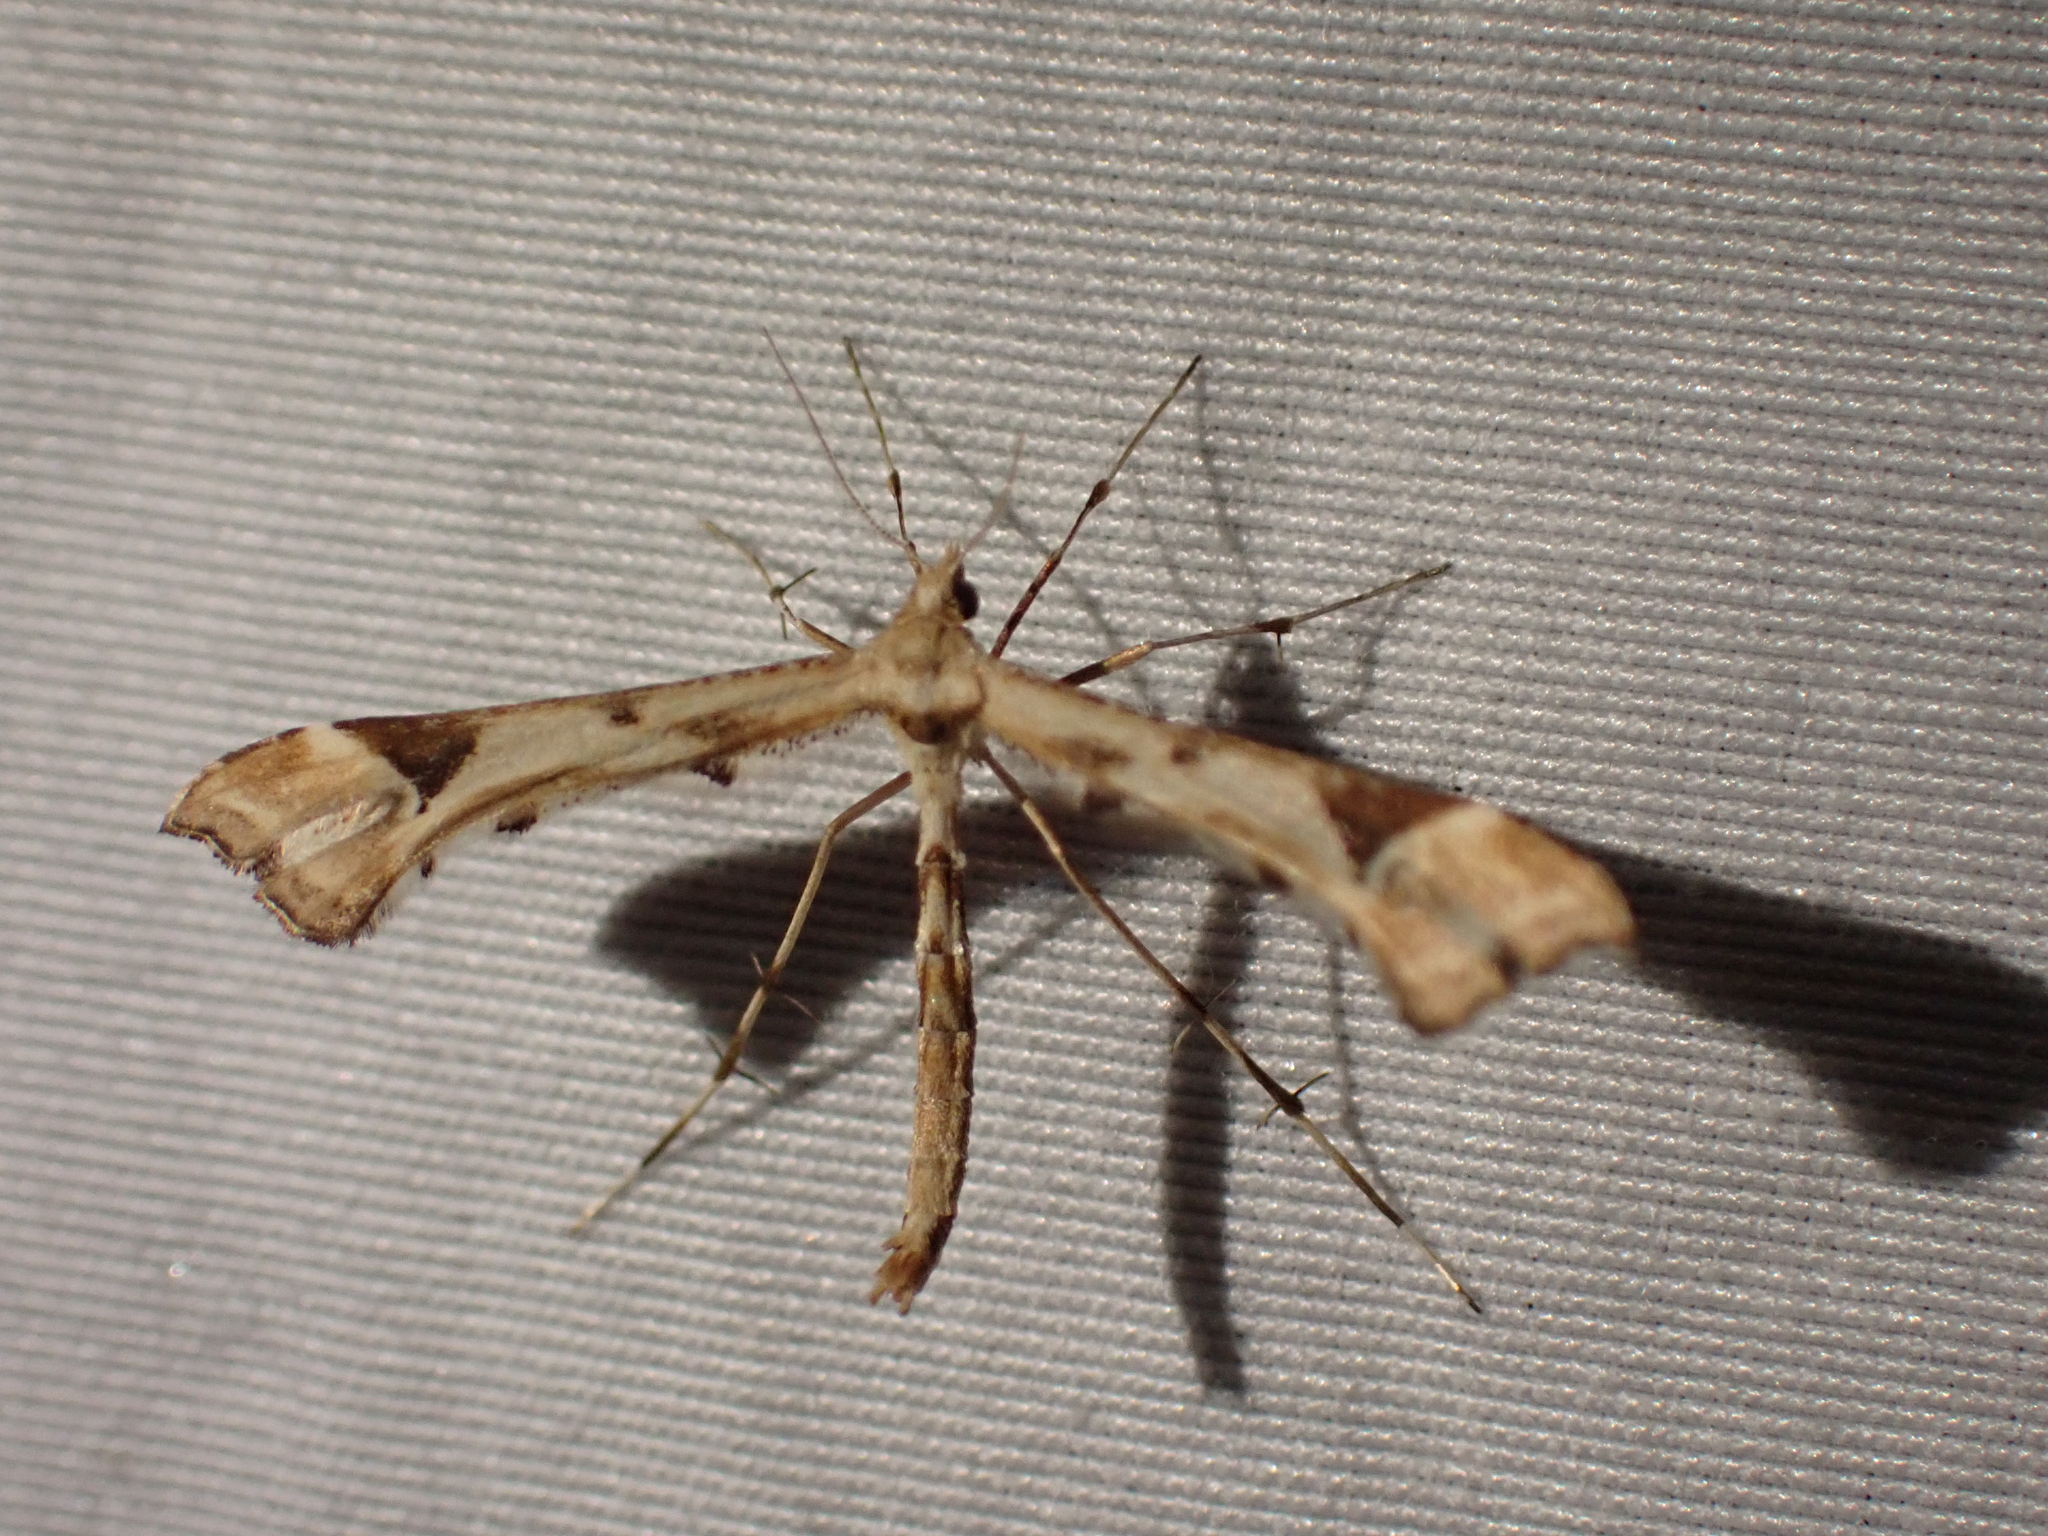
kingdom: Animalia
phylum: Arthropoda
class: Insecta
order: Lepidoptera
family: Pterophoridae
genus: Platyptilia
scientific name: Platyptilia carduidactylus
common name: Artichoke plume moth
